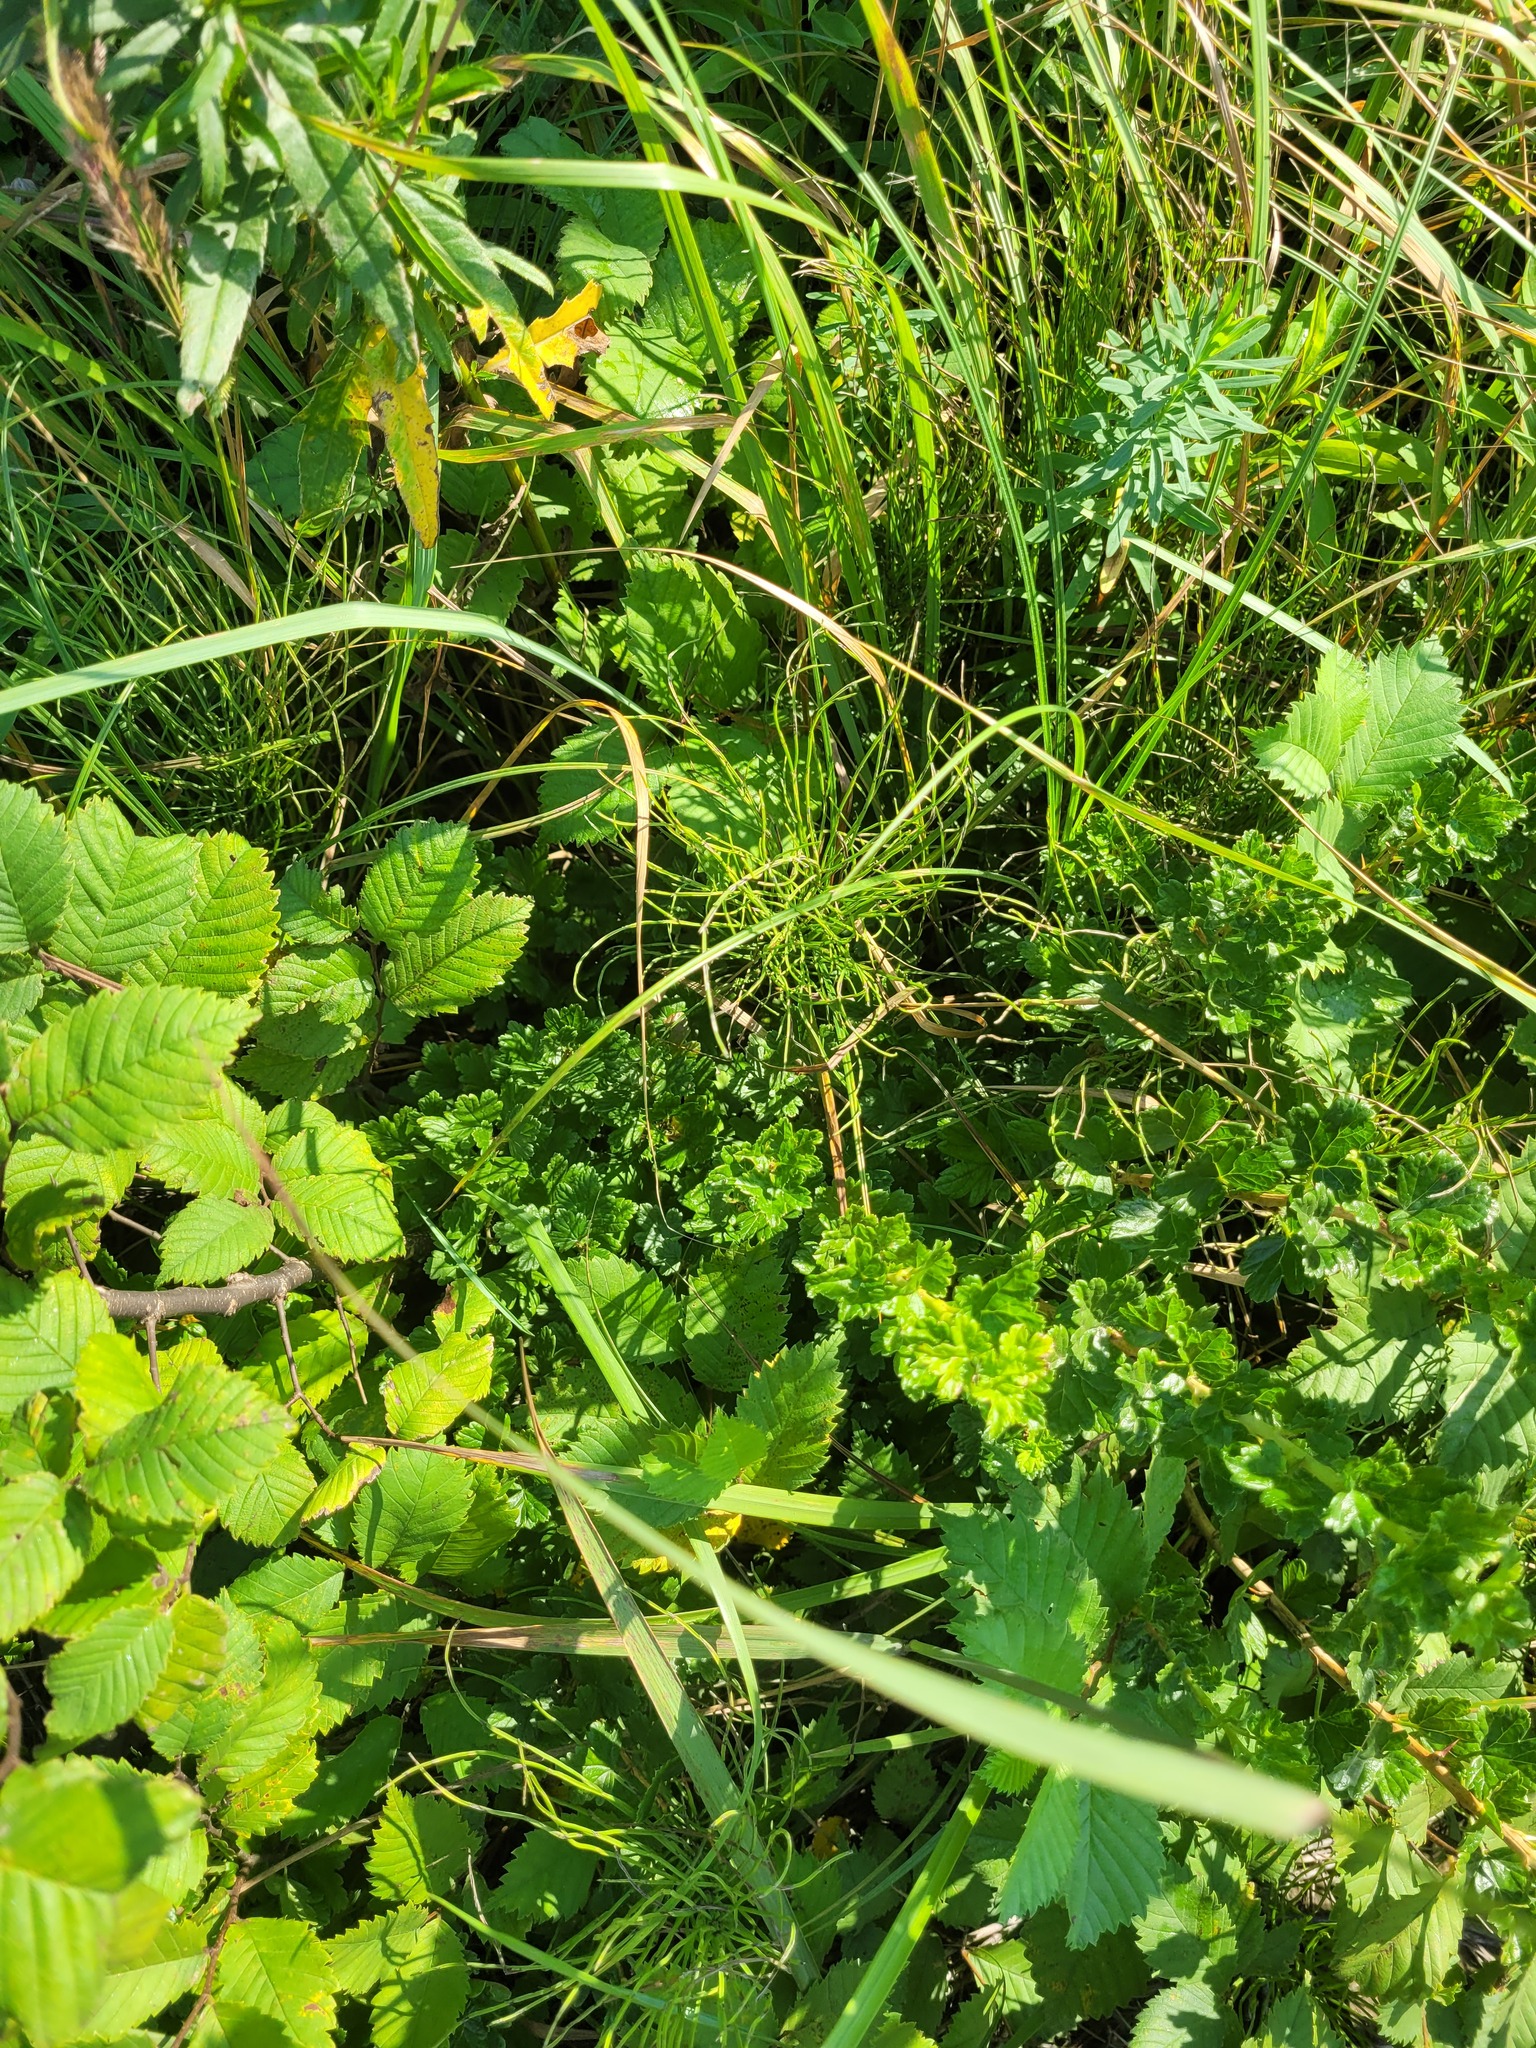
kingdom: Plantae
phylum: Tracheophyta
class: Magnoliopsida
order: Saxifragales
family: Grossulariaceae
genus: Ribes
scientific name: Ribes uva-crispa
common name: Gooseberry
